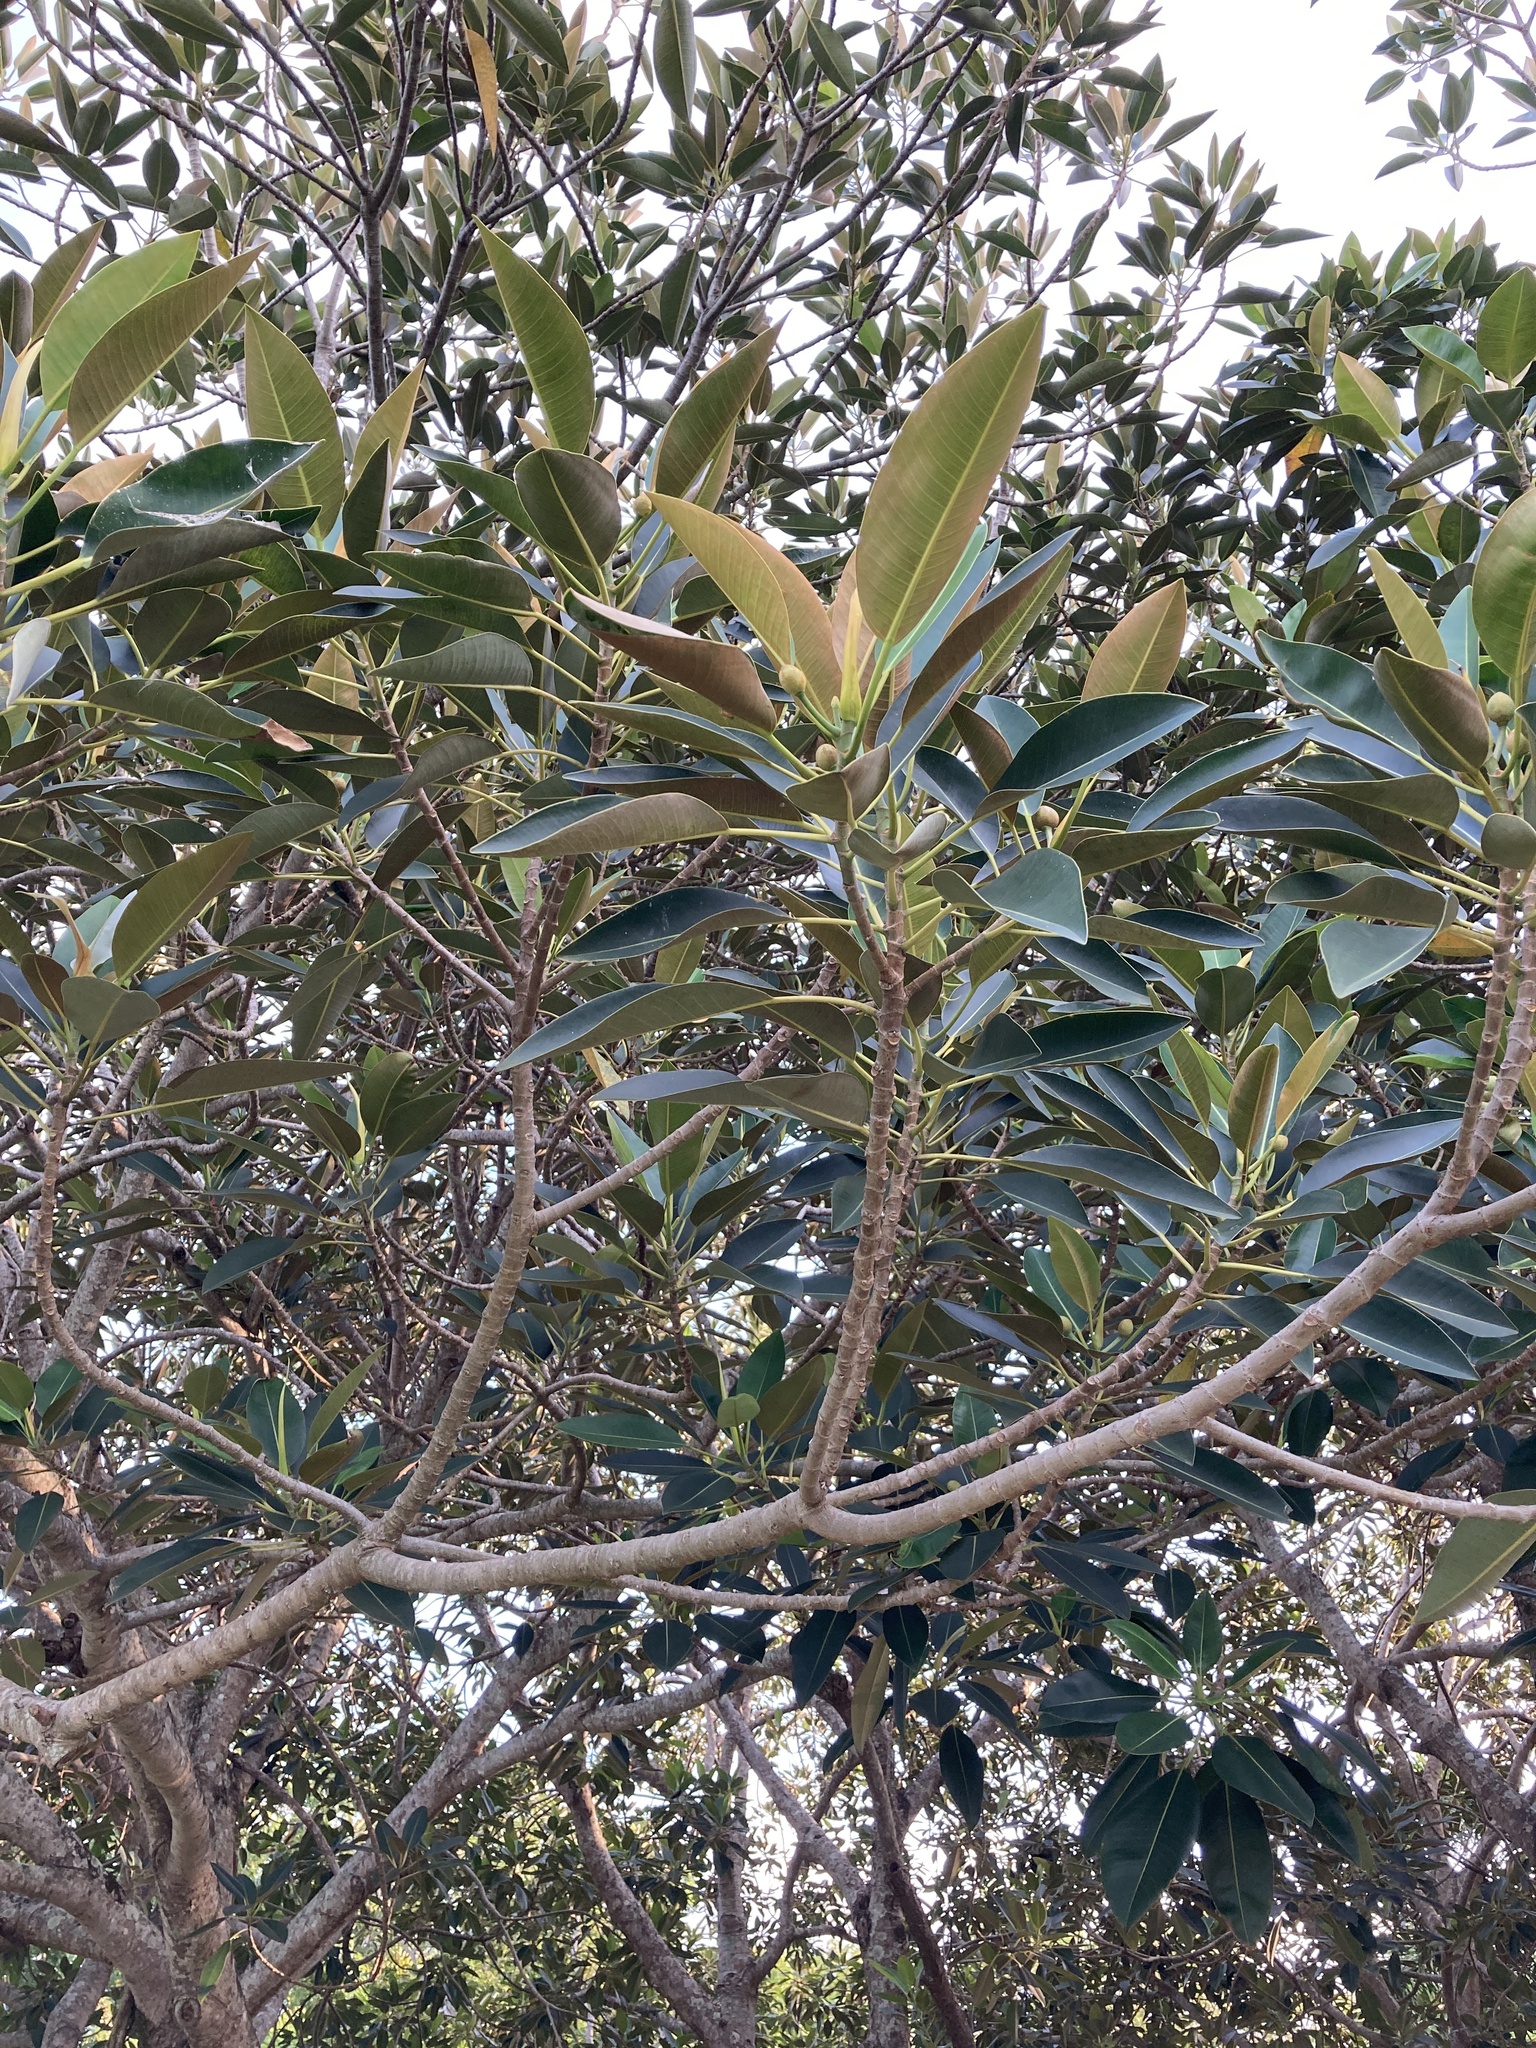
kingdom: Plantae
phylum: Tracheophyta
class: Magnoliopsida
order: Rosales
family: Moraceae
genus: Ficus
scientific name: Ficus macrophylla
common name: Moreton bay fig
